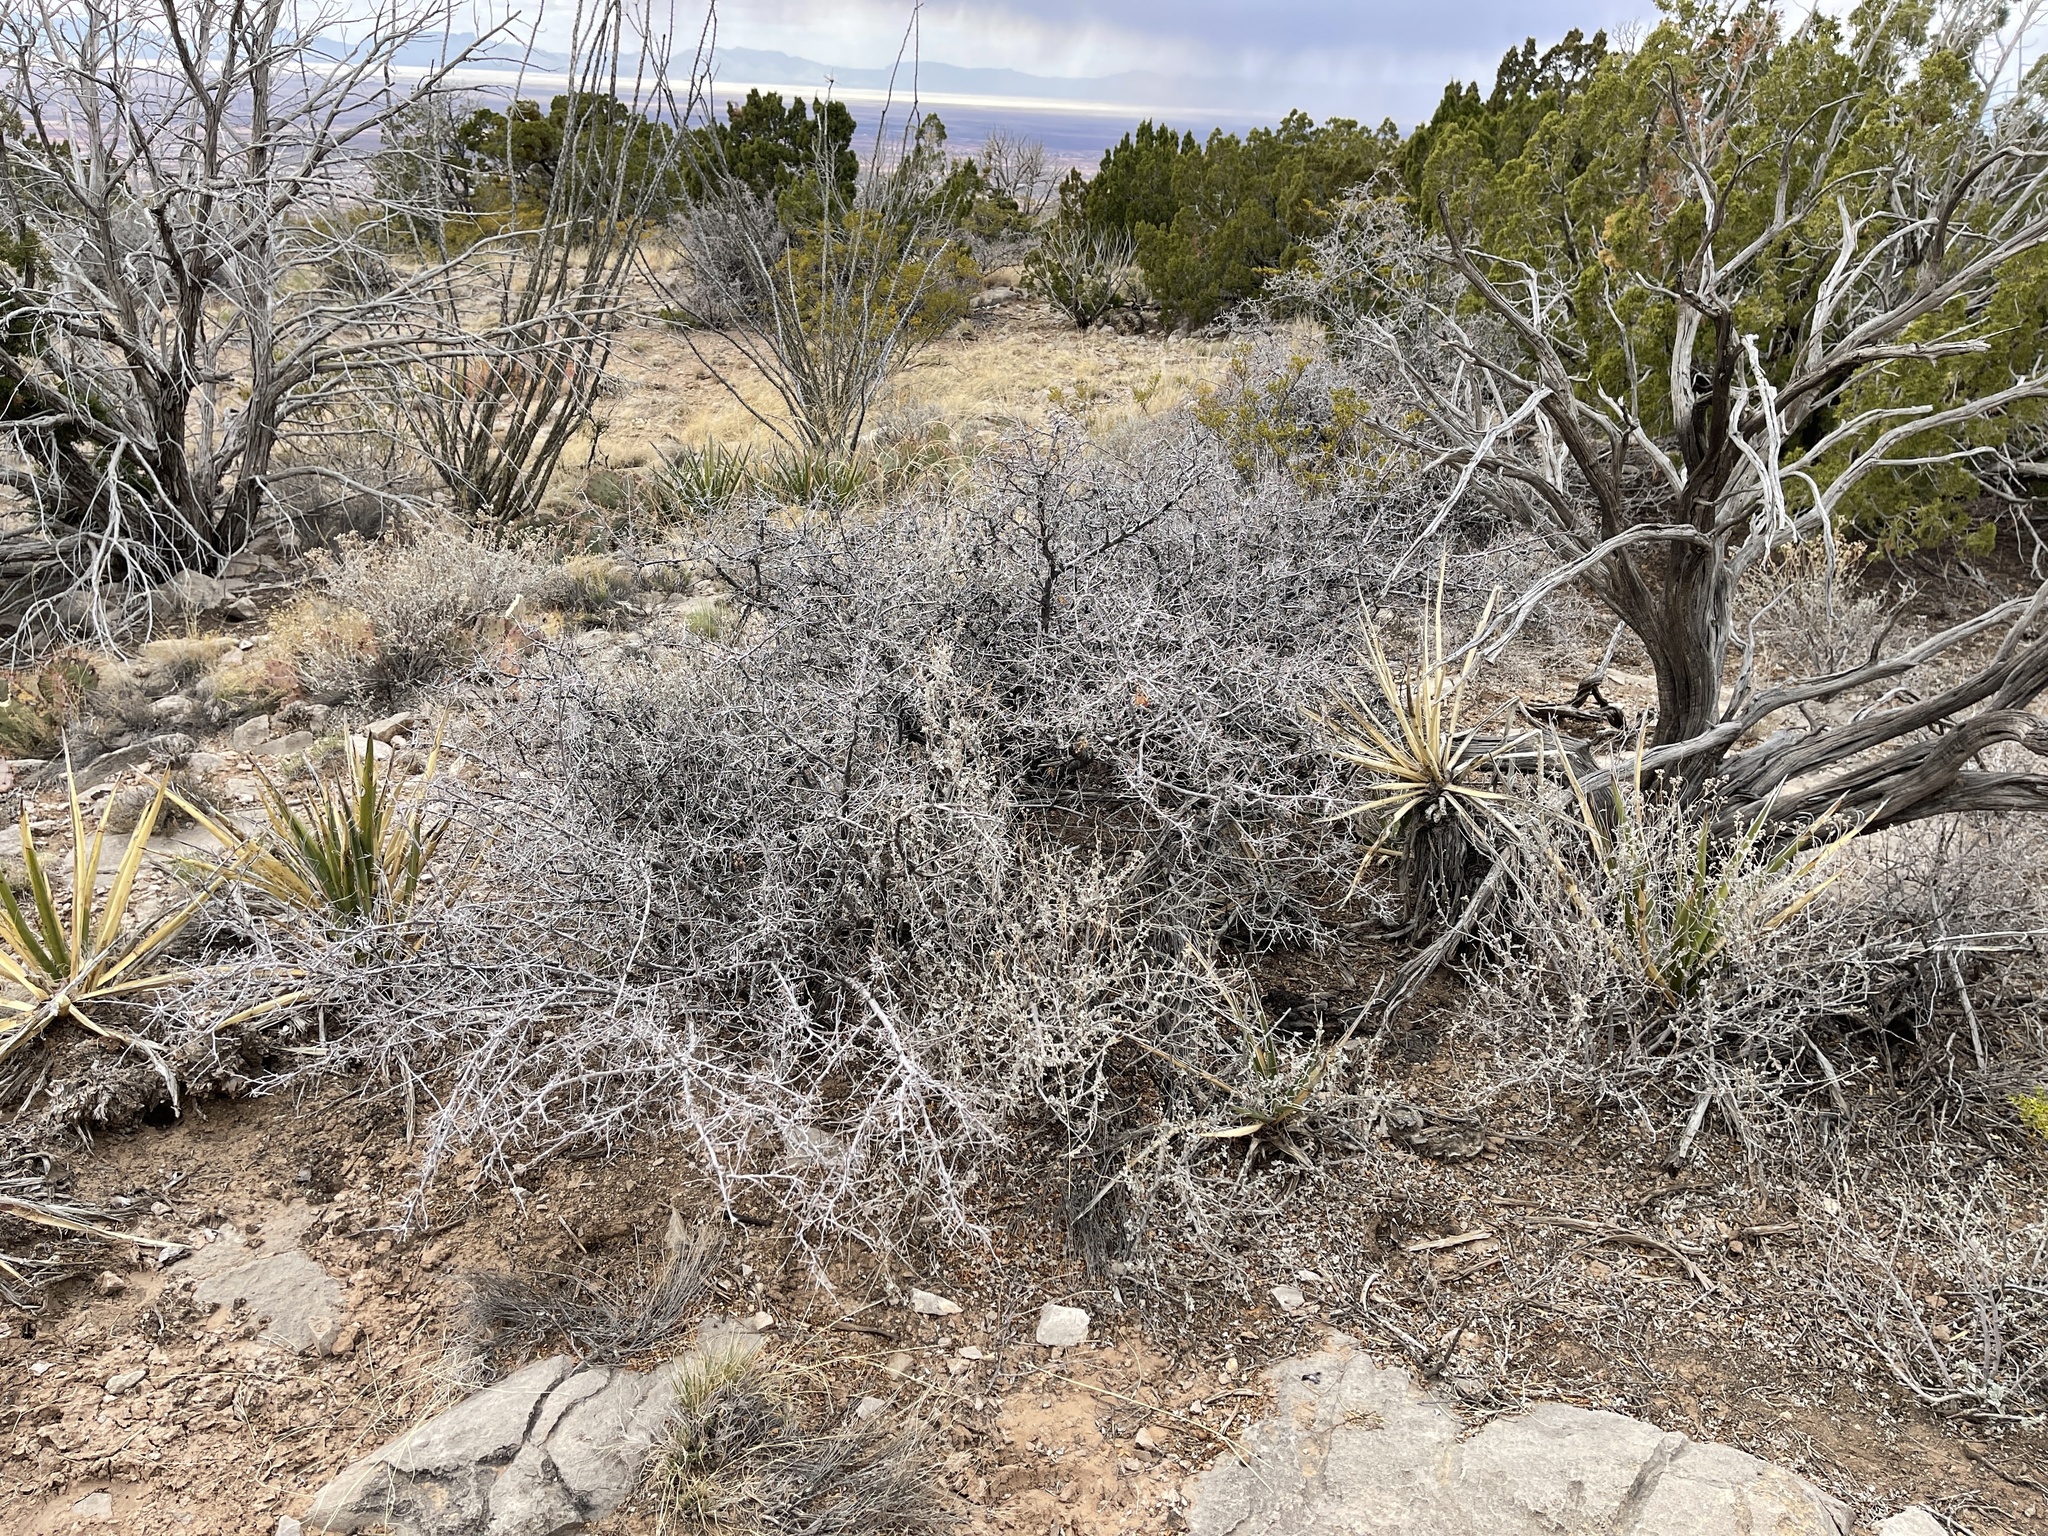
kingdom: Plantae
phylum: Tracheophyta
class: Magnoliopsida
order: Sapindales
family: Anacardiaceae
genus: Rhus
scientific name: Rhus microphylla
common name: Desert sumac
